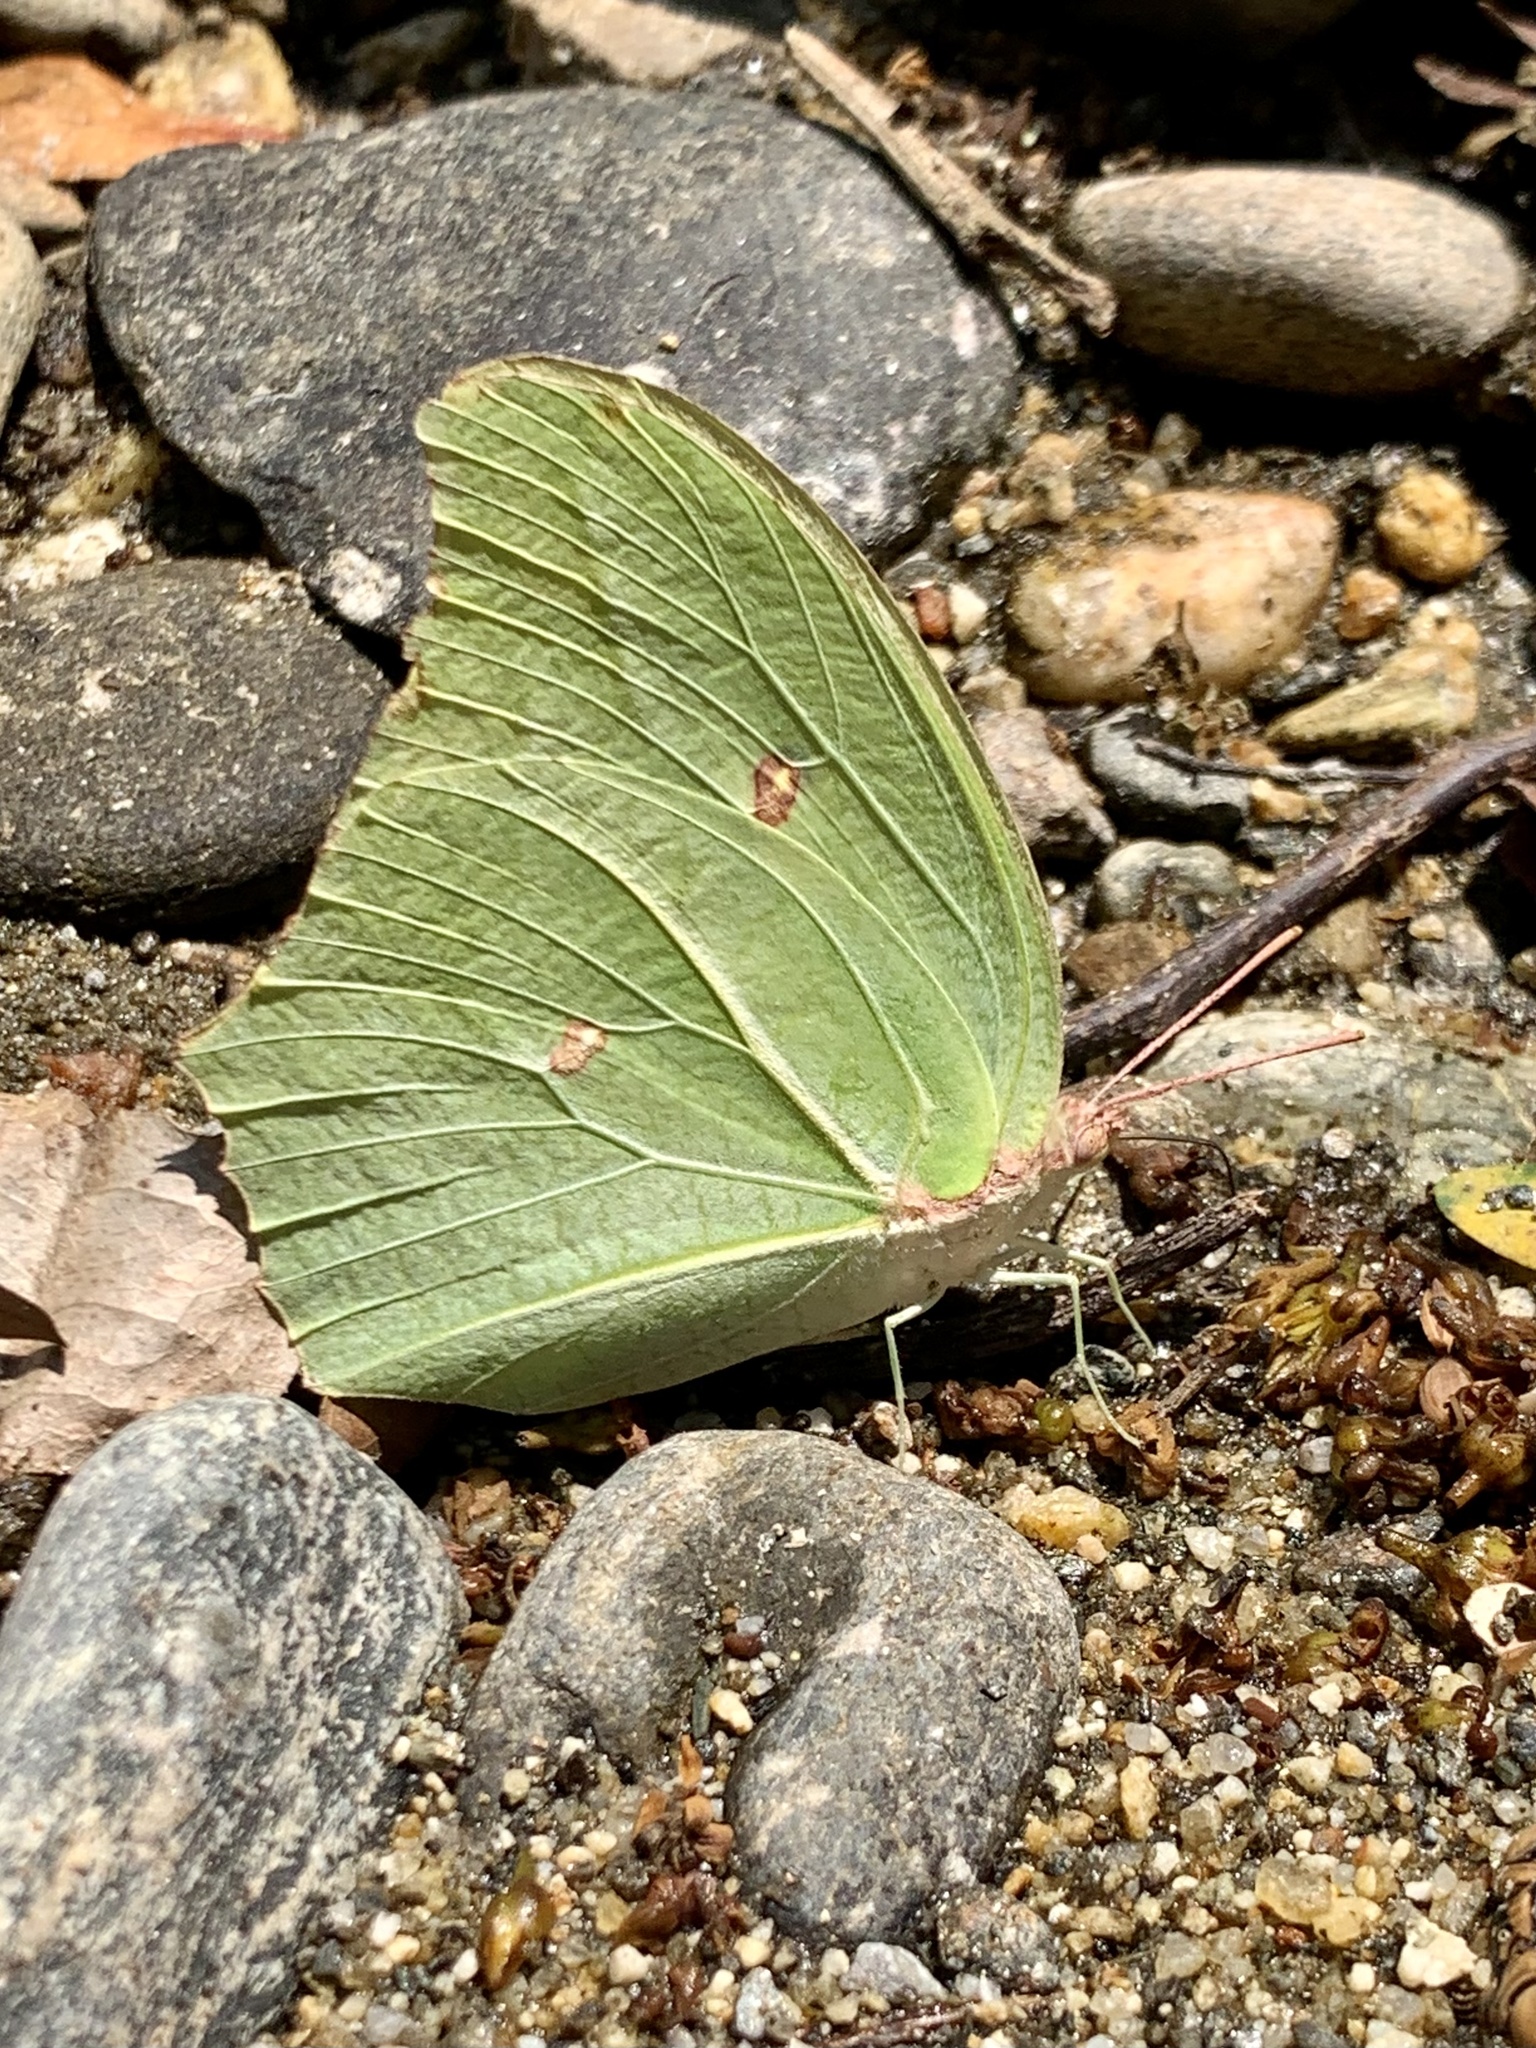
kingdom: Animalia
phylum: Arthropoda
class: Insecta
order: Lepidoptera
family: Pieridae
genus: Anteos
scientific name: Anteos maerula
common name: Angled sulphur
